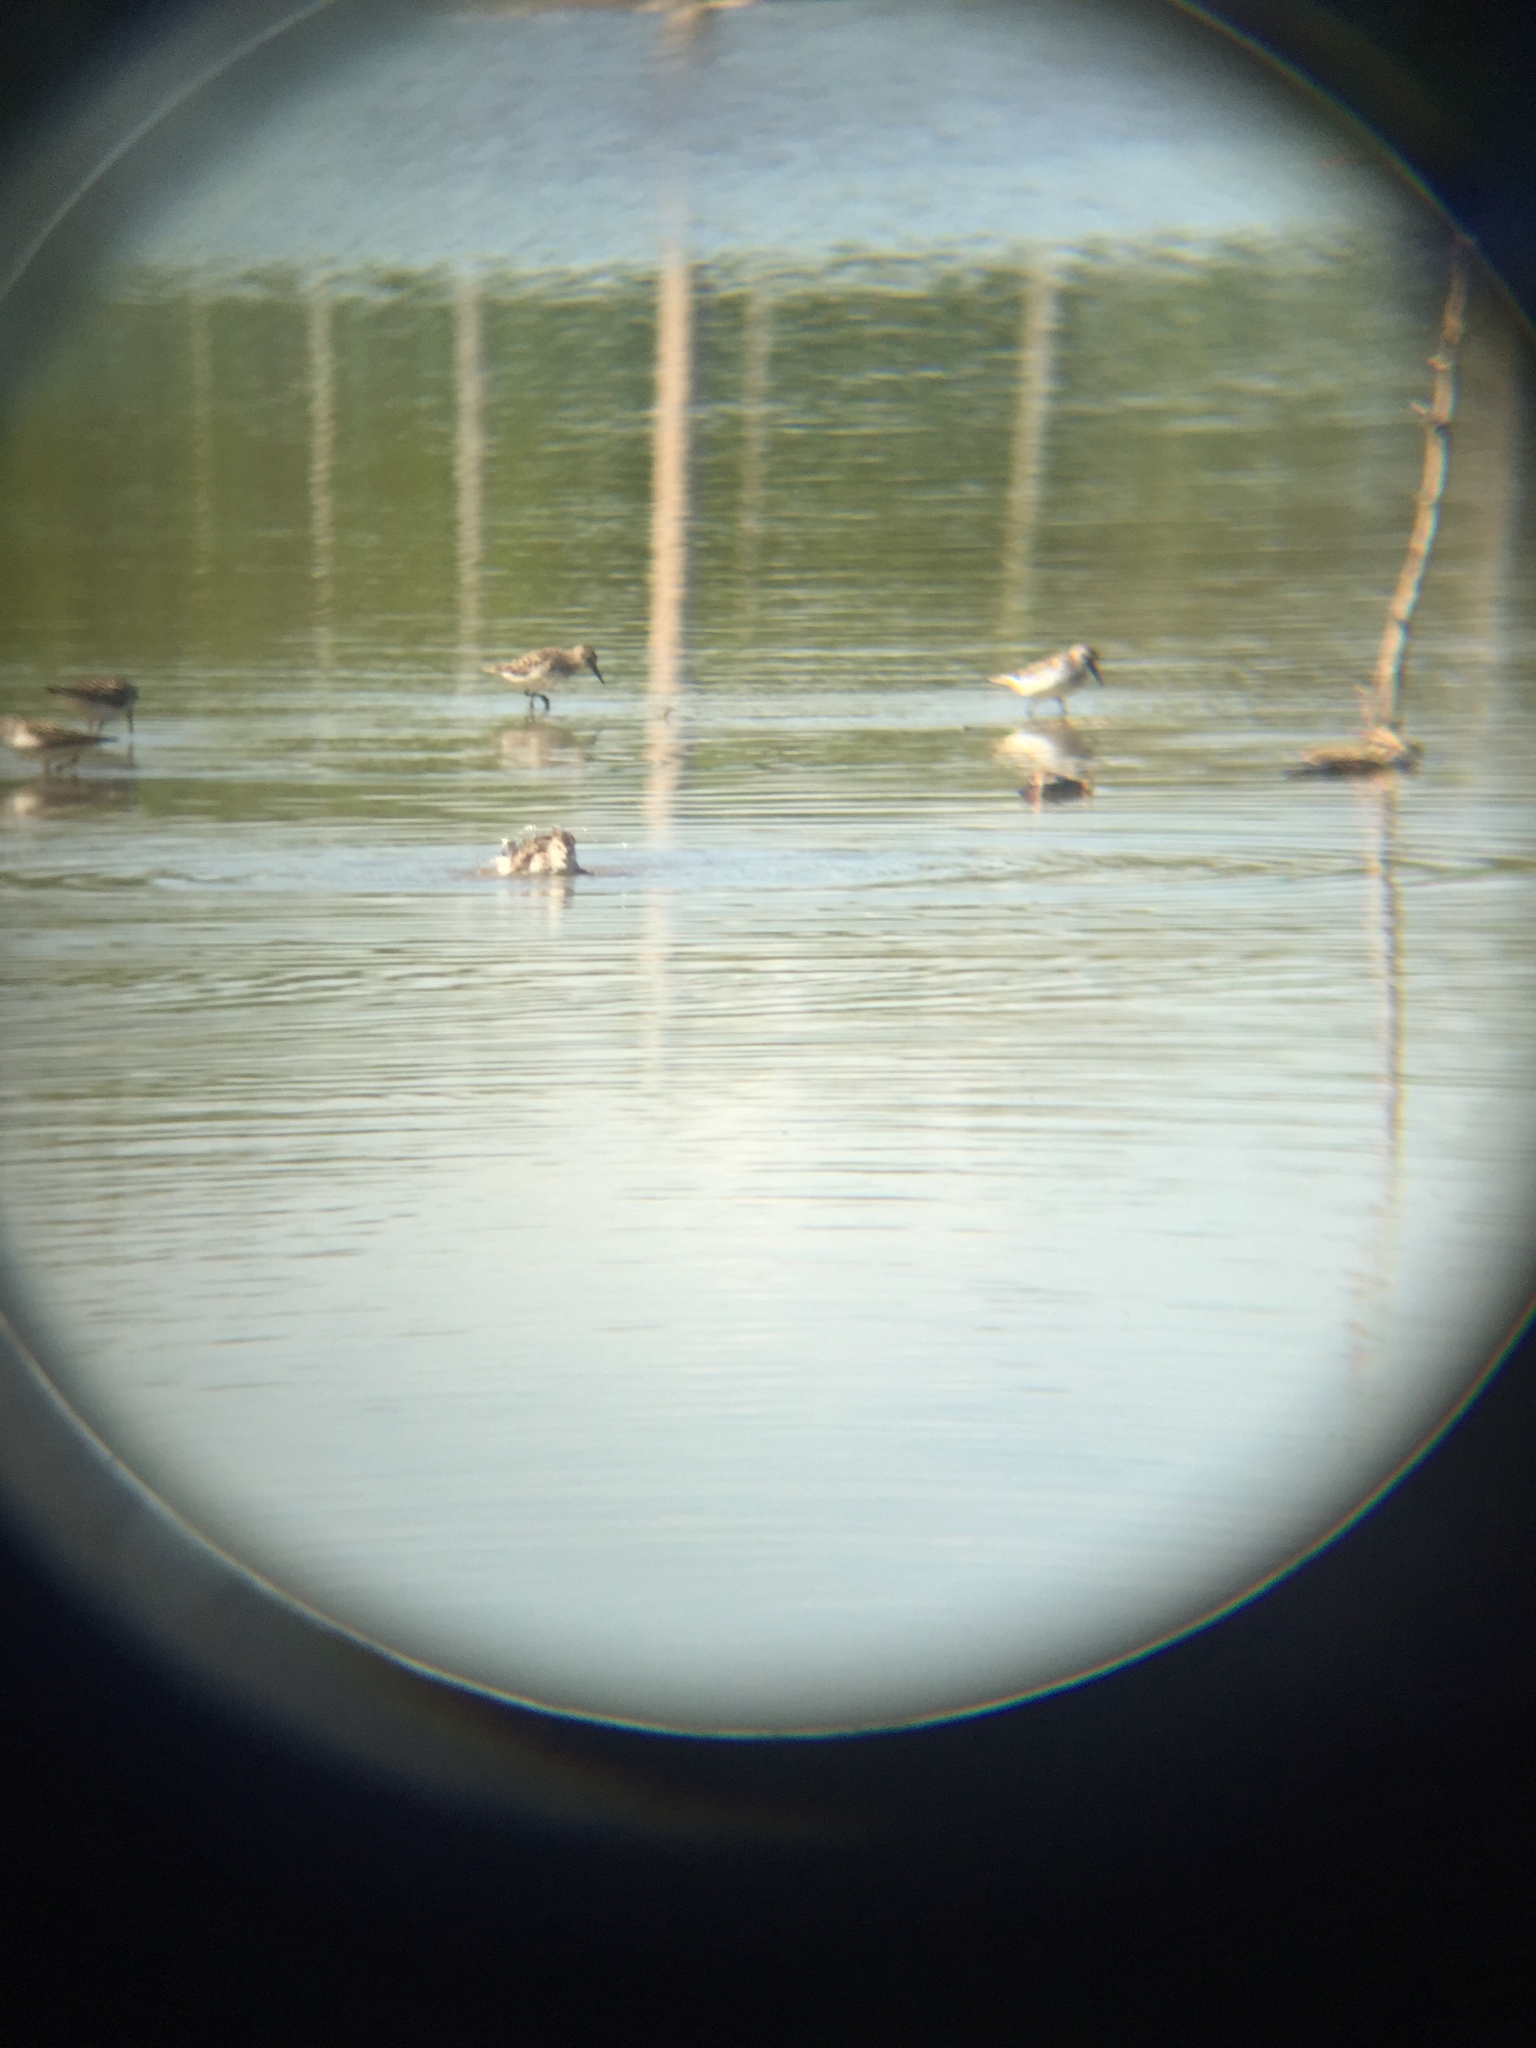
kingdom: Animalia
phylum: Chordata
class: Aves
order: Charadriiformes
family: Scolopacidae
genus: Calidris
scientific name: Calidris pusilla
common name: Semipalmated sandpiper
